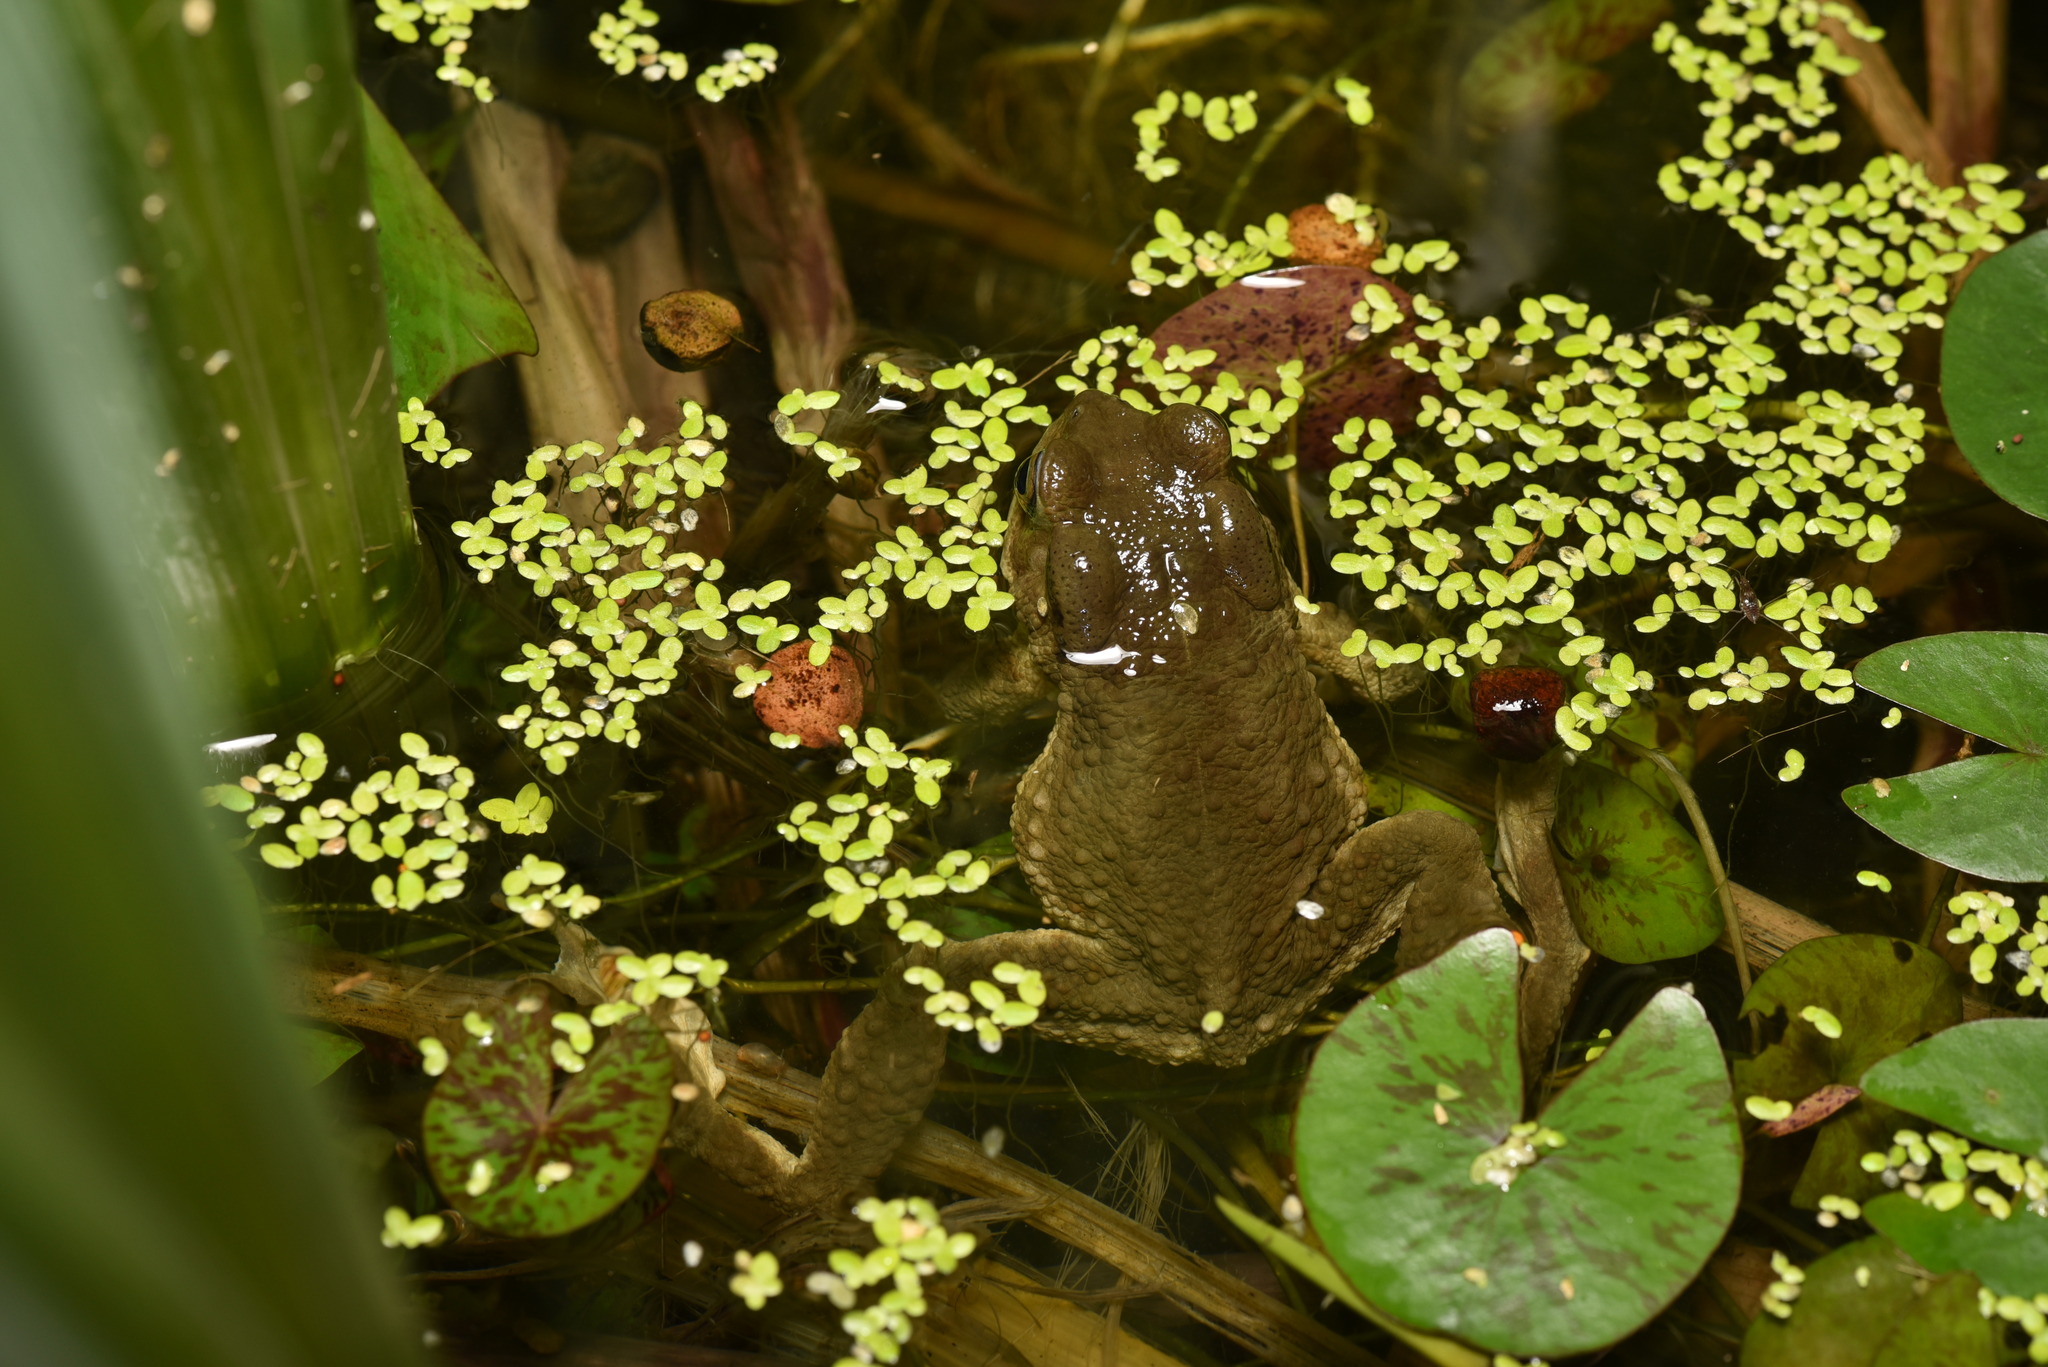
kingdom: Animalia
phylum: Chordata
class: Amphibia
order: Anura
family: Bufonidae
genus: Bufo
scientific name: Bufo bankorensis
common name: Bankor toad
